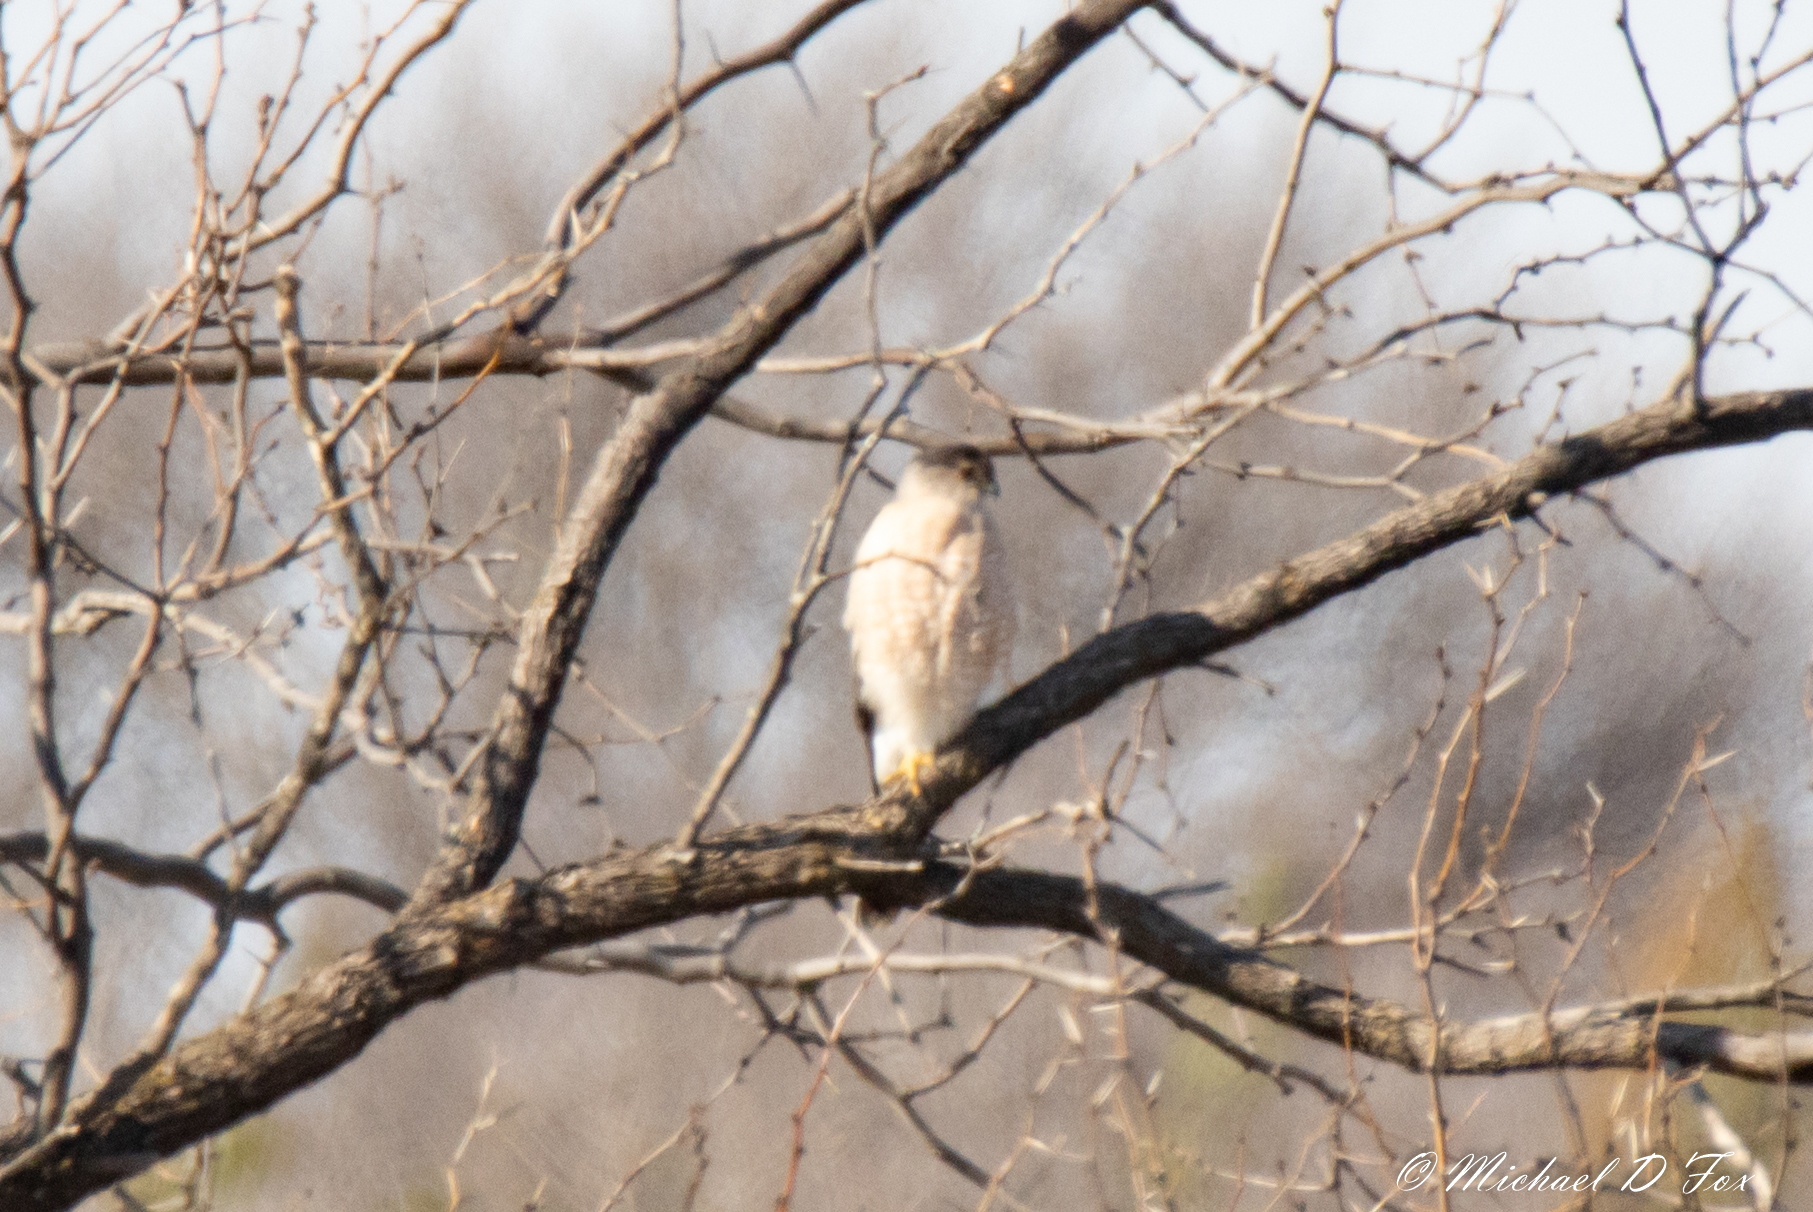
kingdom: Animalia
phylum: Chordata
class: Aves
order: Accipitriformes
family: Accipitridae
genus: Accipiter
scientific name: Accipiter cooperii
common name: Cooper's hawk
